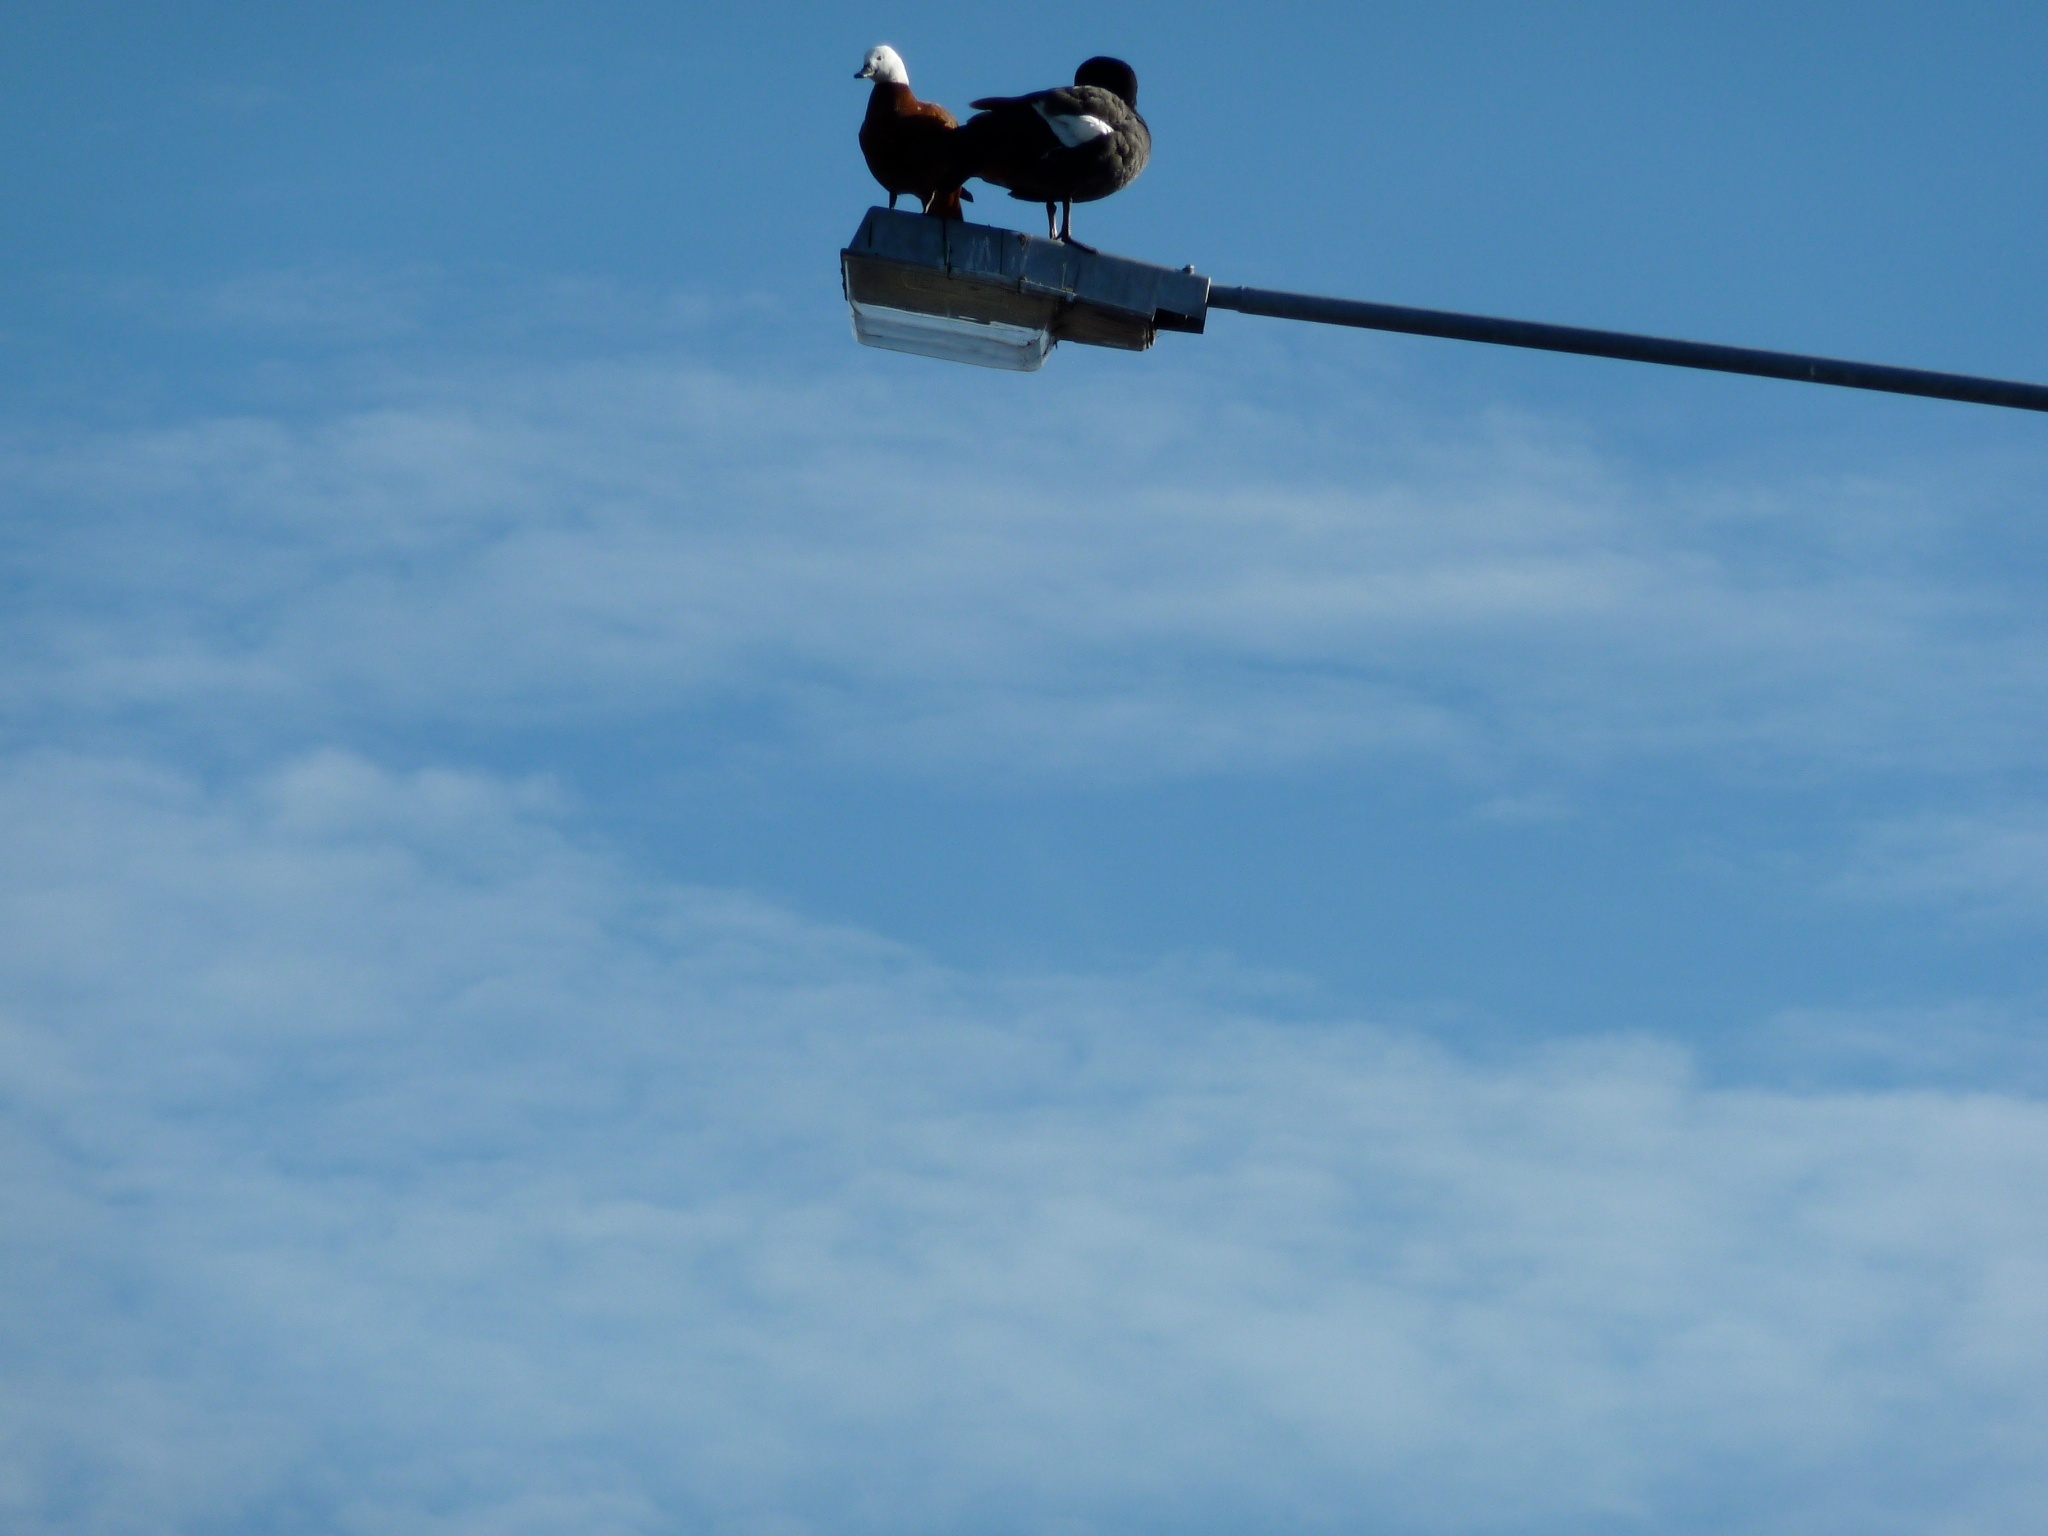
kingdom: Animalia
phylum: Chordata
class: Aves
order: Anseriformes
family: Anatidae
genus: Tadorna
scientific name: Tadorna variegata
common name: Paradise shelduck
